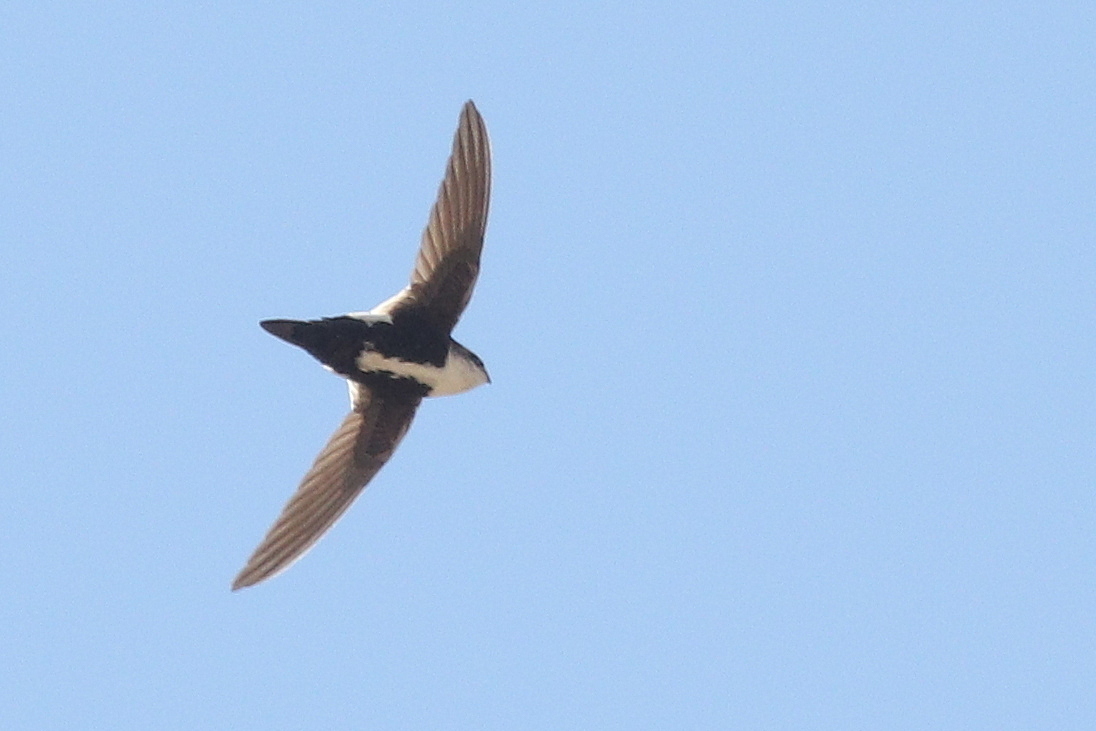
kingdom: Animalia
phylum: Chordata
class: Aves
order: Apodiformes
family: Apodidae
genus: Aeronautes
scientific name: Aeronautes saxatalis
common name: White-throated swift
